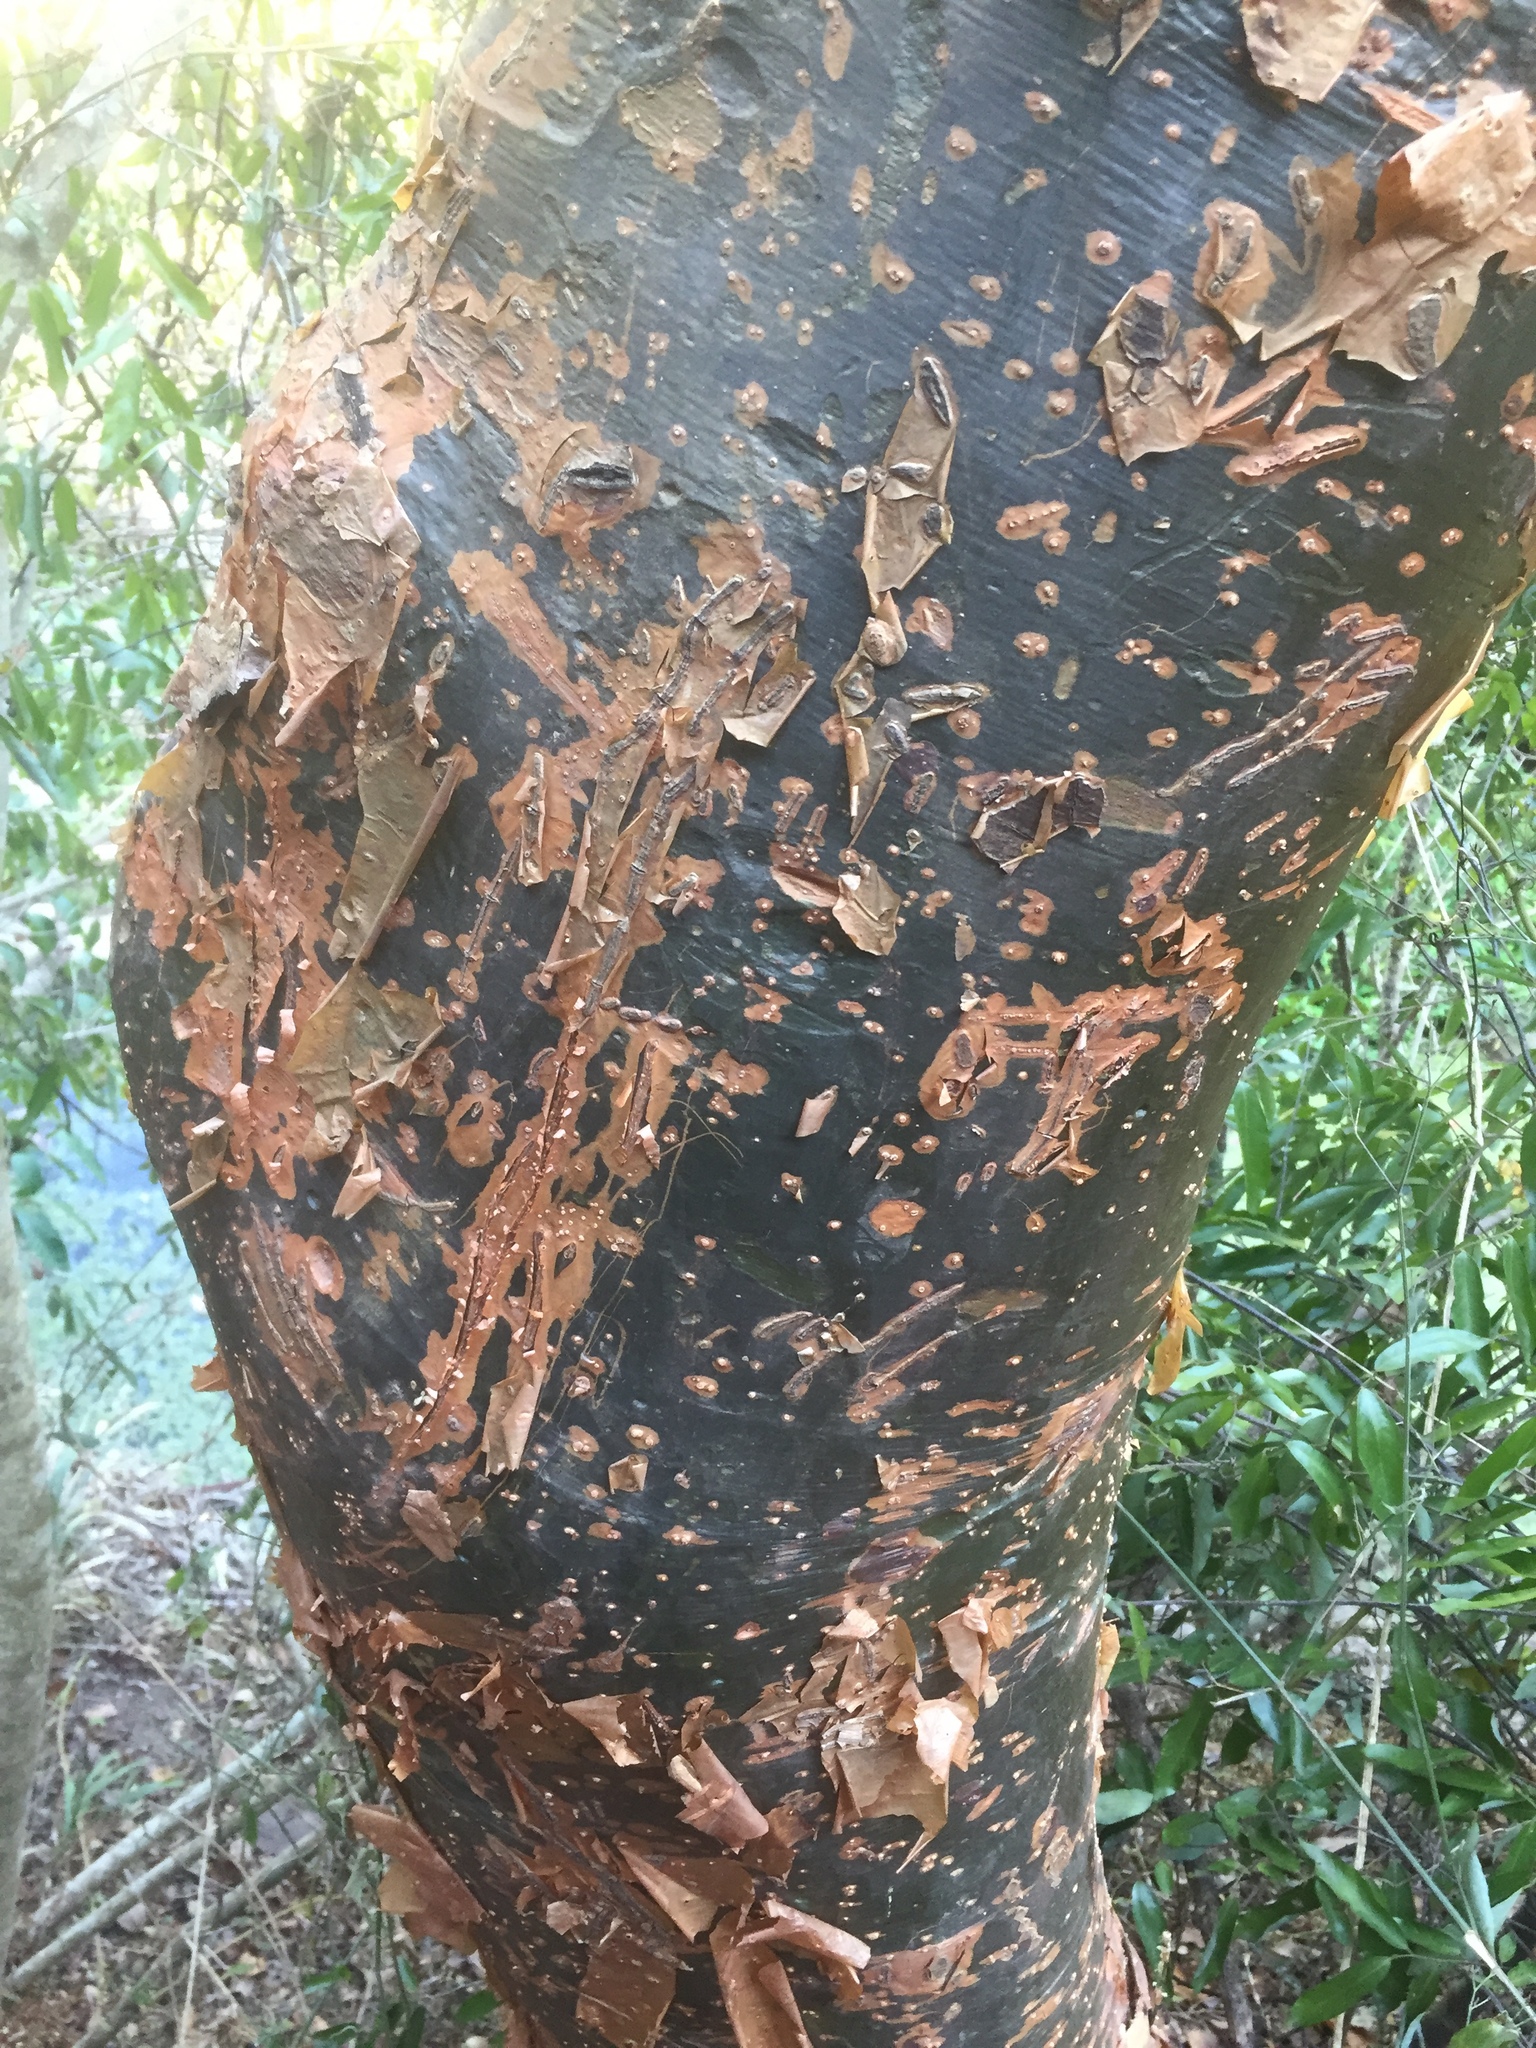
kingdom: Plantae
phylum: Tracheophyta
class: Magnoliopsida
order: Sapindales
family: Burseraceae
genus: Commiphora
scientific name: Commiphora harveyi
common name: Copper-stem corkwood
